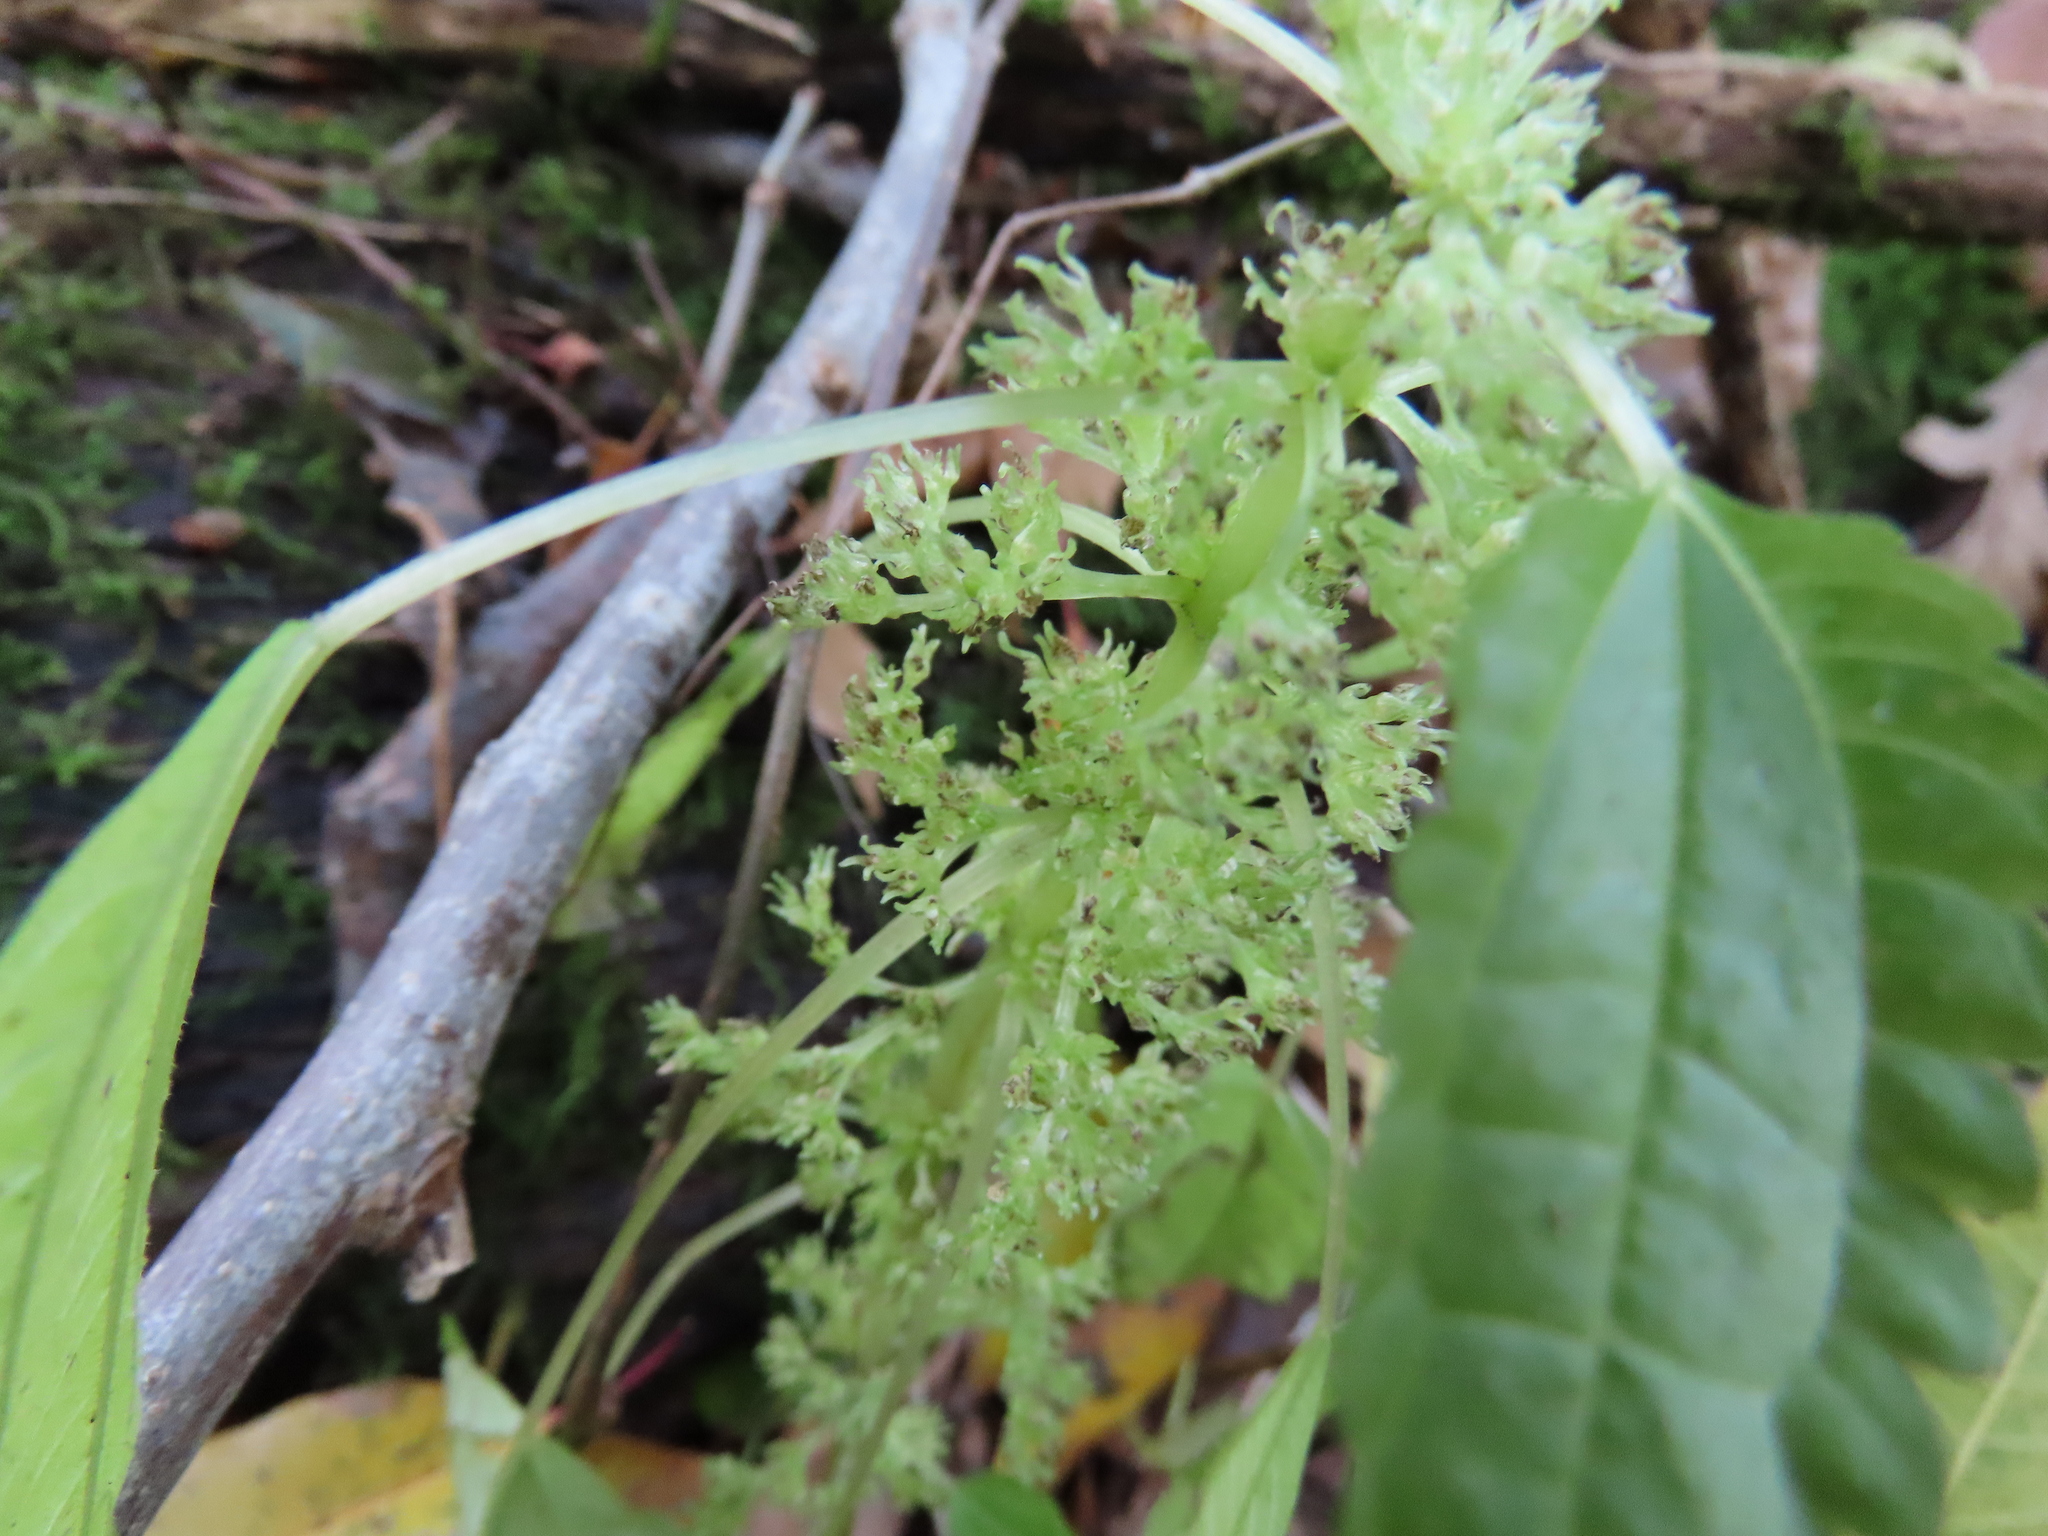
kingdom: Plantae
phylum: Tracheophyta
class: Magnoliopsida
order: Rosales
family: Urticaceae
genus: Pilea
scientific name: Pilea pumila
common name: Clearweed
